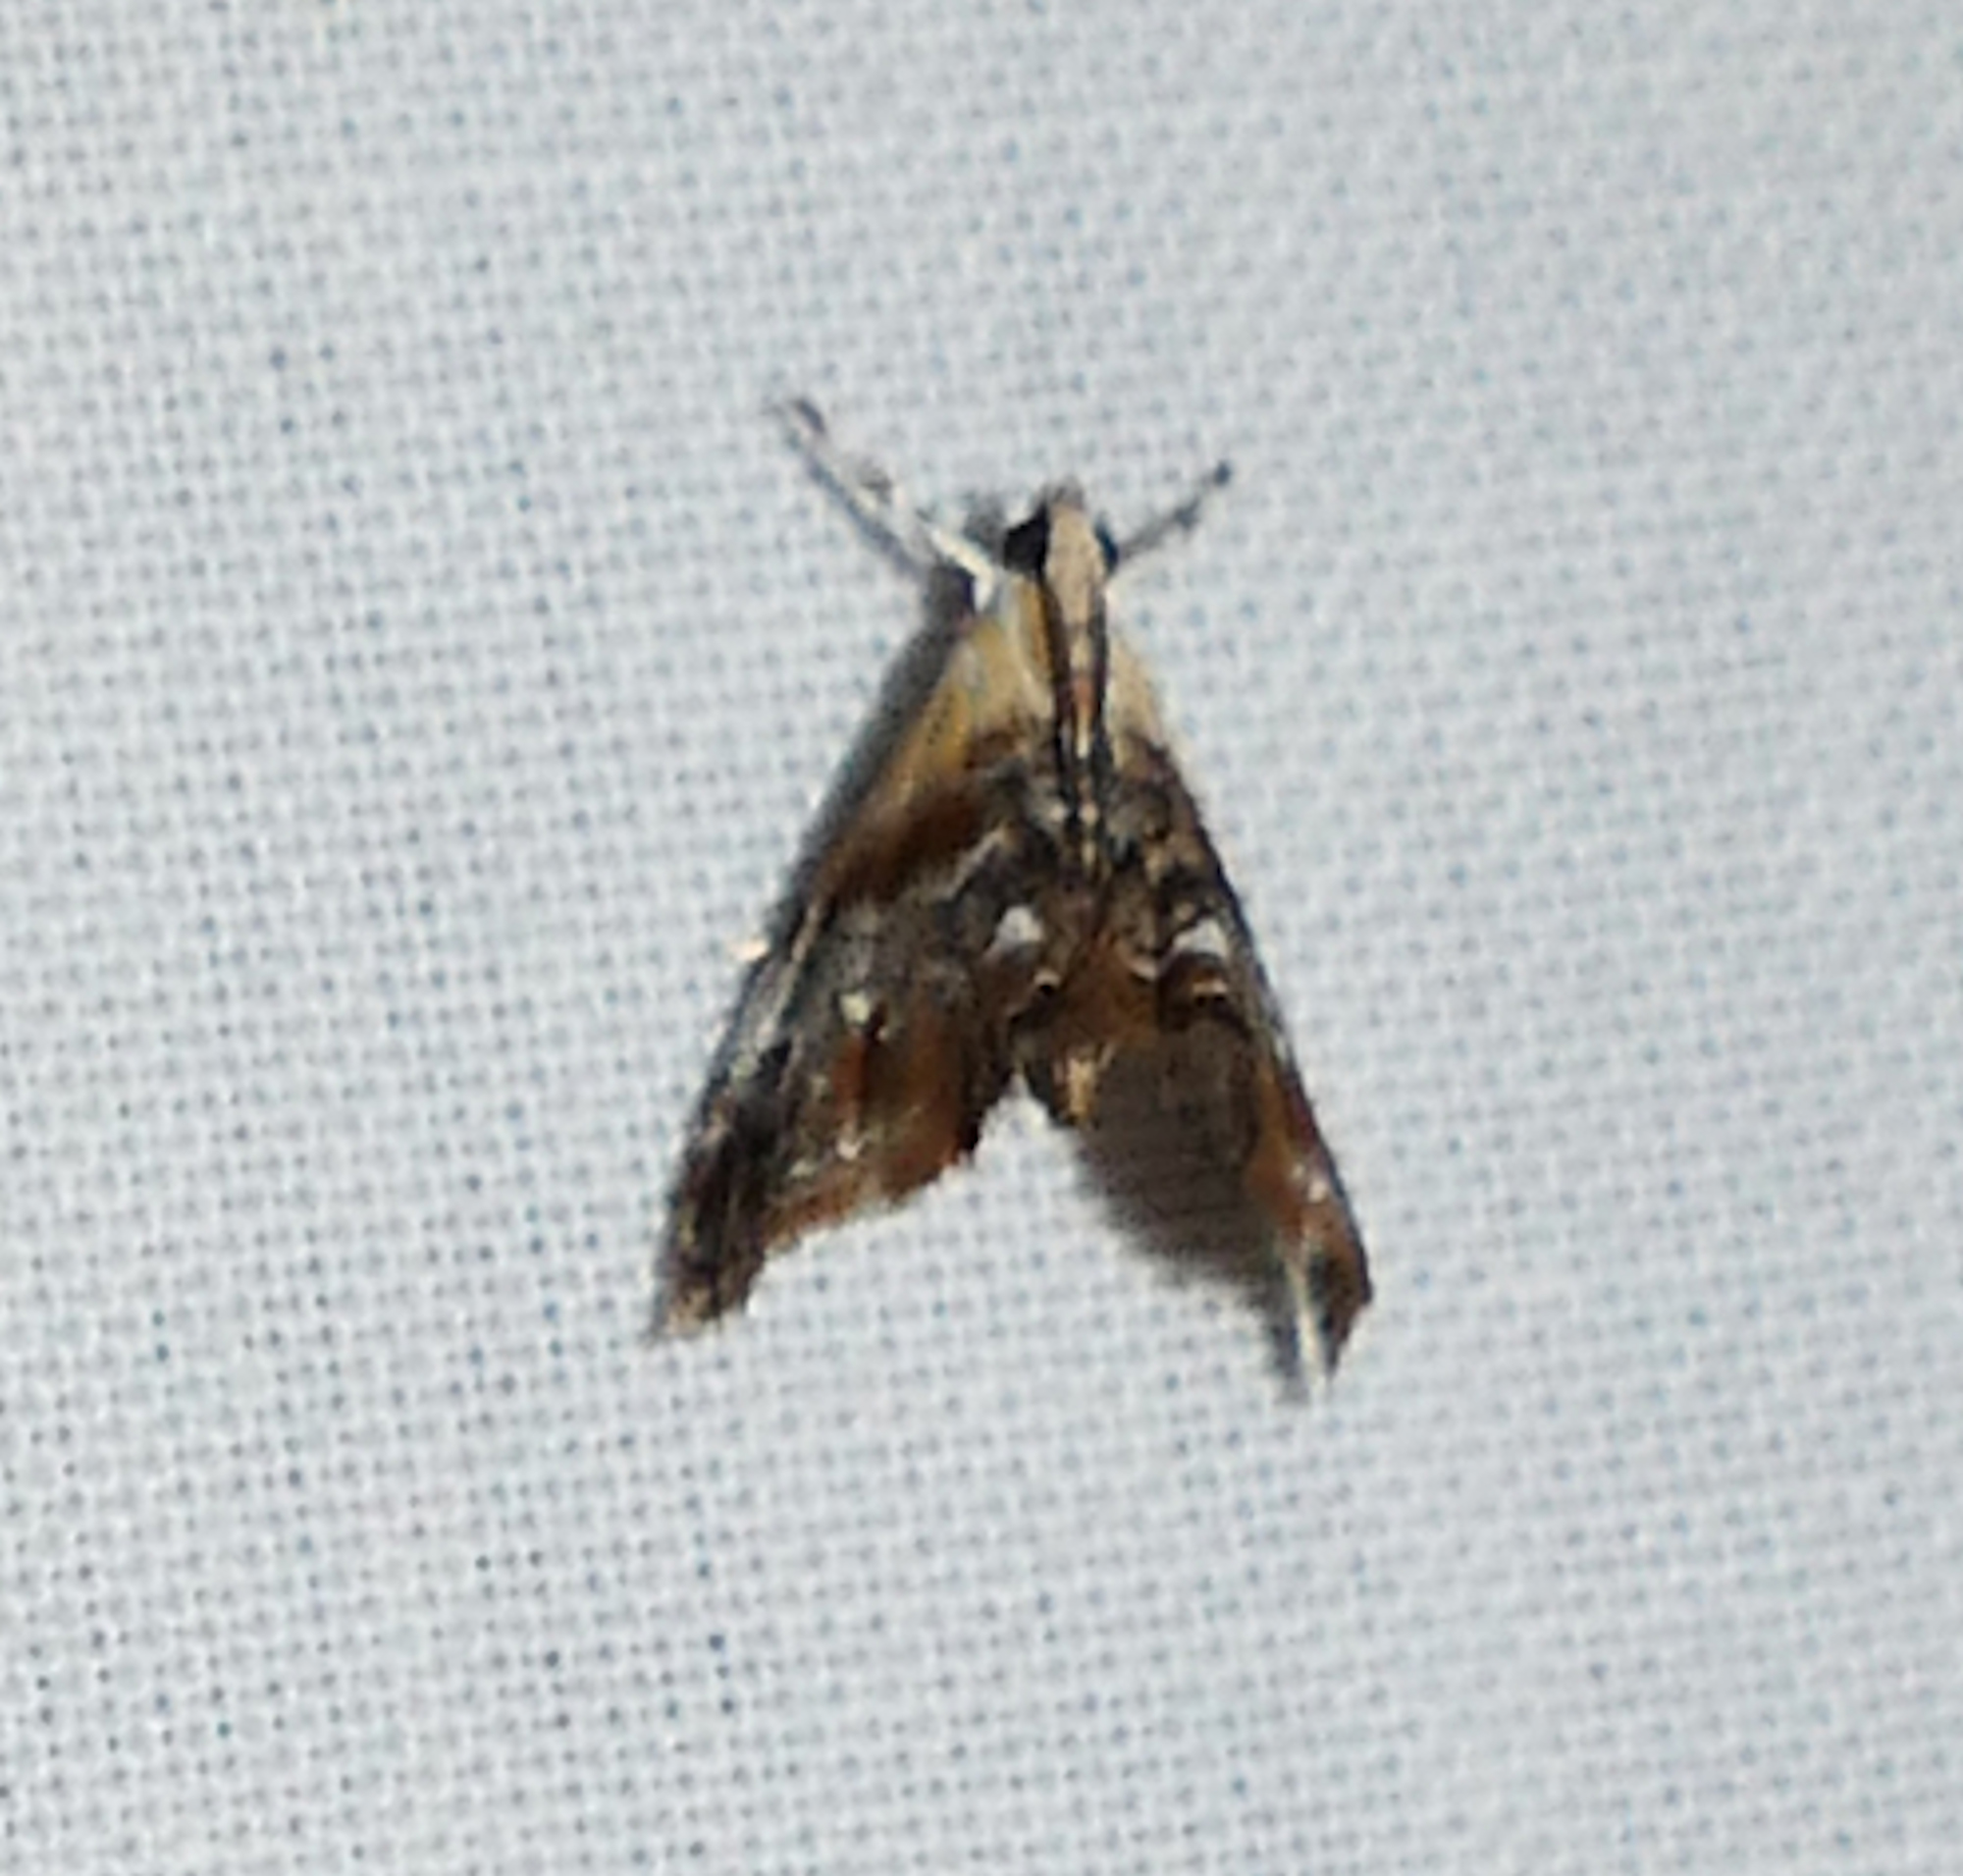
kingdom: Animalia
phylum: Arthropoda
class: Insecta
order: Lepidoptera
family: Crambidae
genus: Dicymolomia
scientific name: Dicymolomia julianalis
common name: Julia's dicymolomia moth
